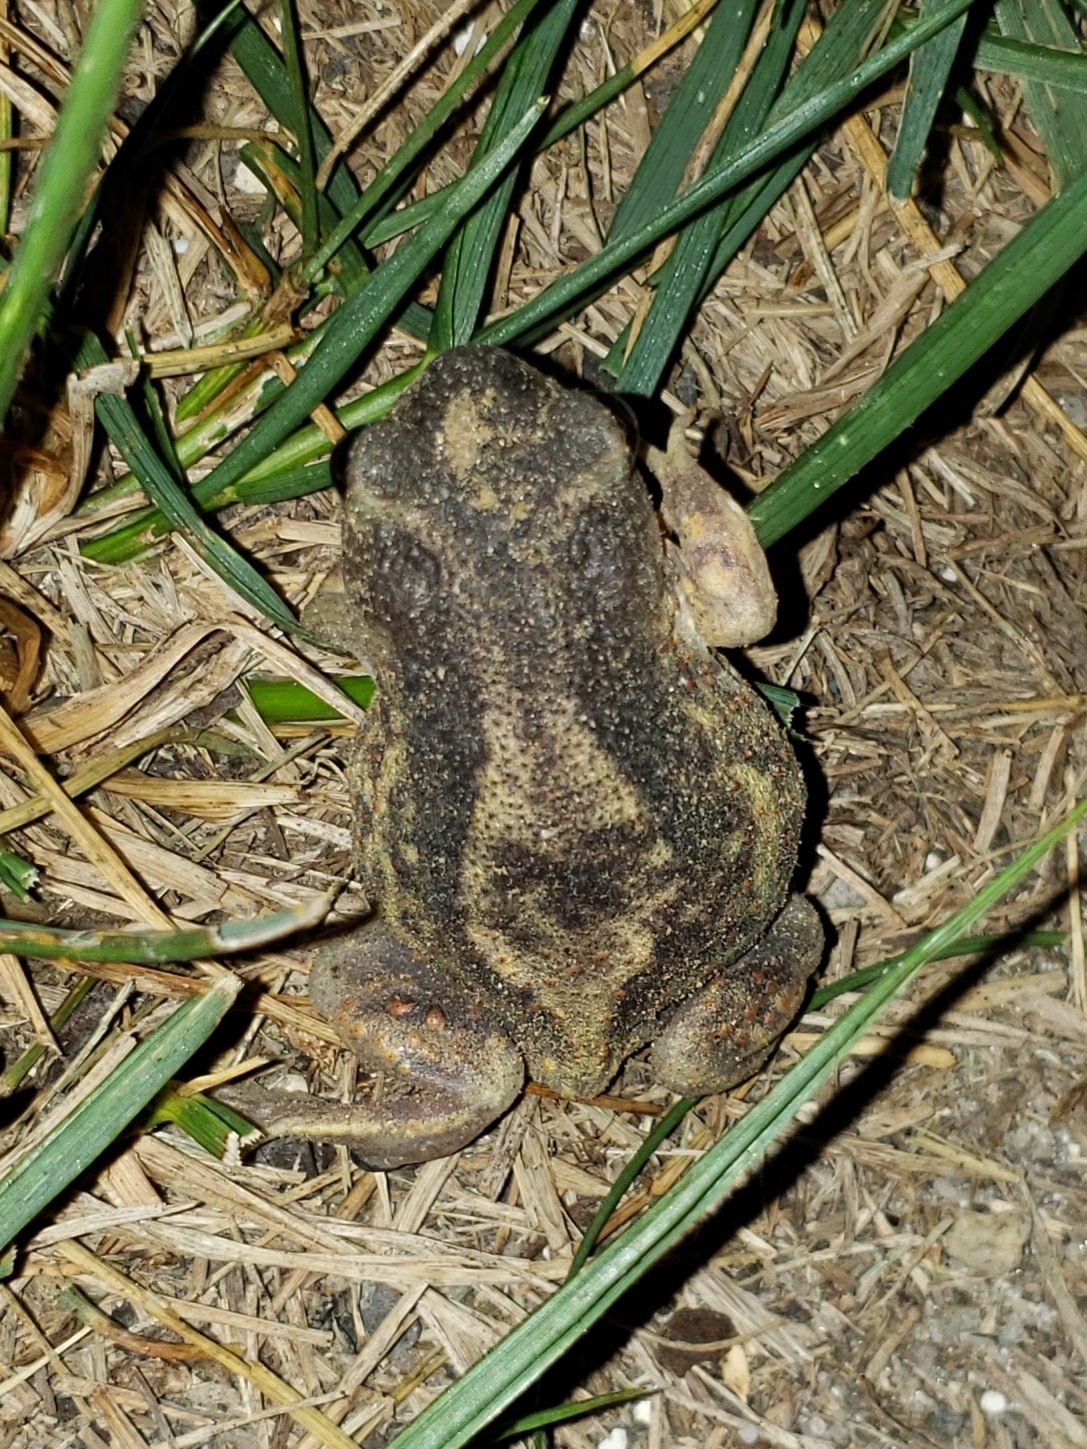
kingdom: Animalia
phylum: Chordata
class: Amphibia
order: Anura
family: Scaphiopodidae
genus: Scaphiopus
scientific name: Scaphiopus holbrookii
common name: Eastern spadefoot toad
